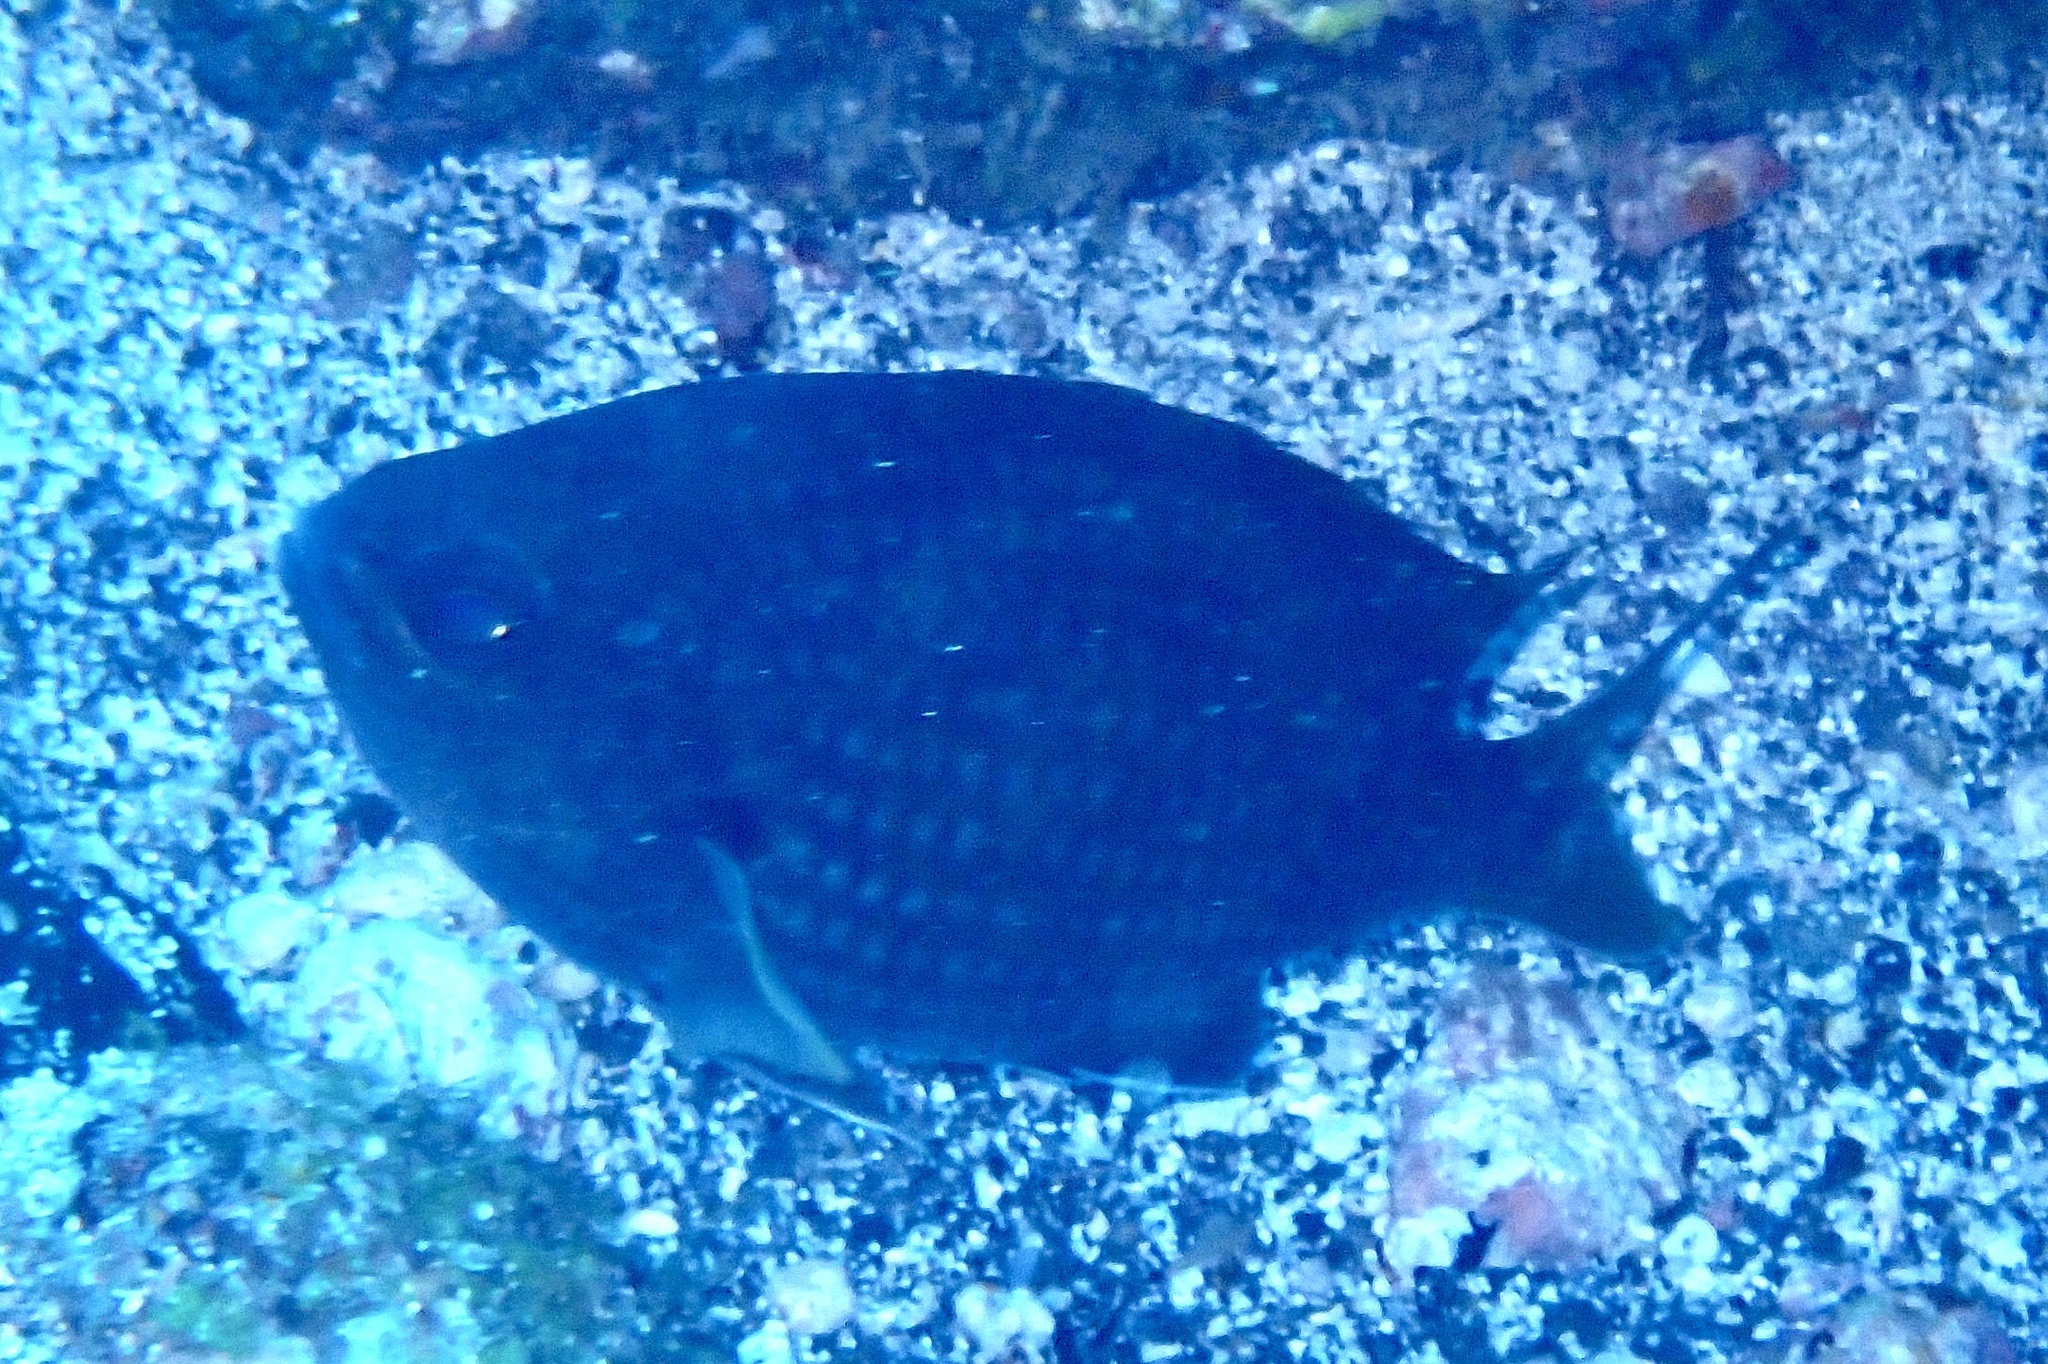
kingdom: Animalia
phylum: Chordata
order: Perciformes
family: Pomacentridae
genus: Chromis
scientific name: Chromis chromis
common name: Damselfish
